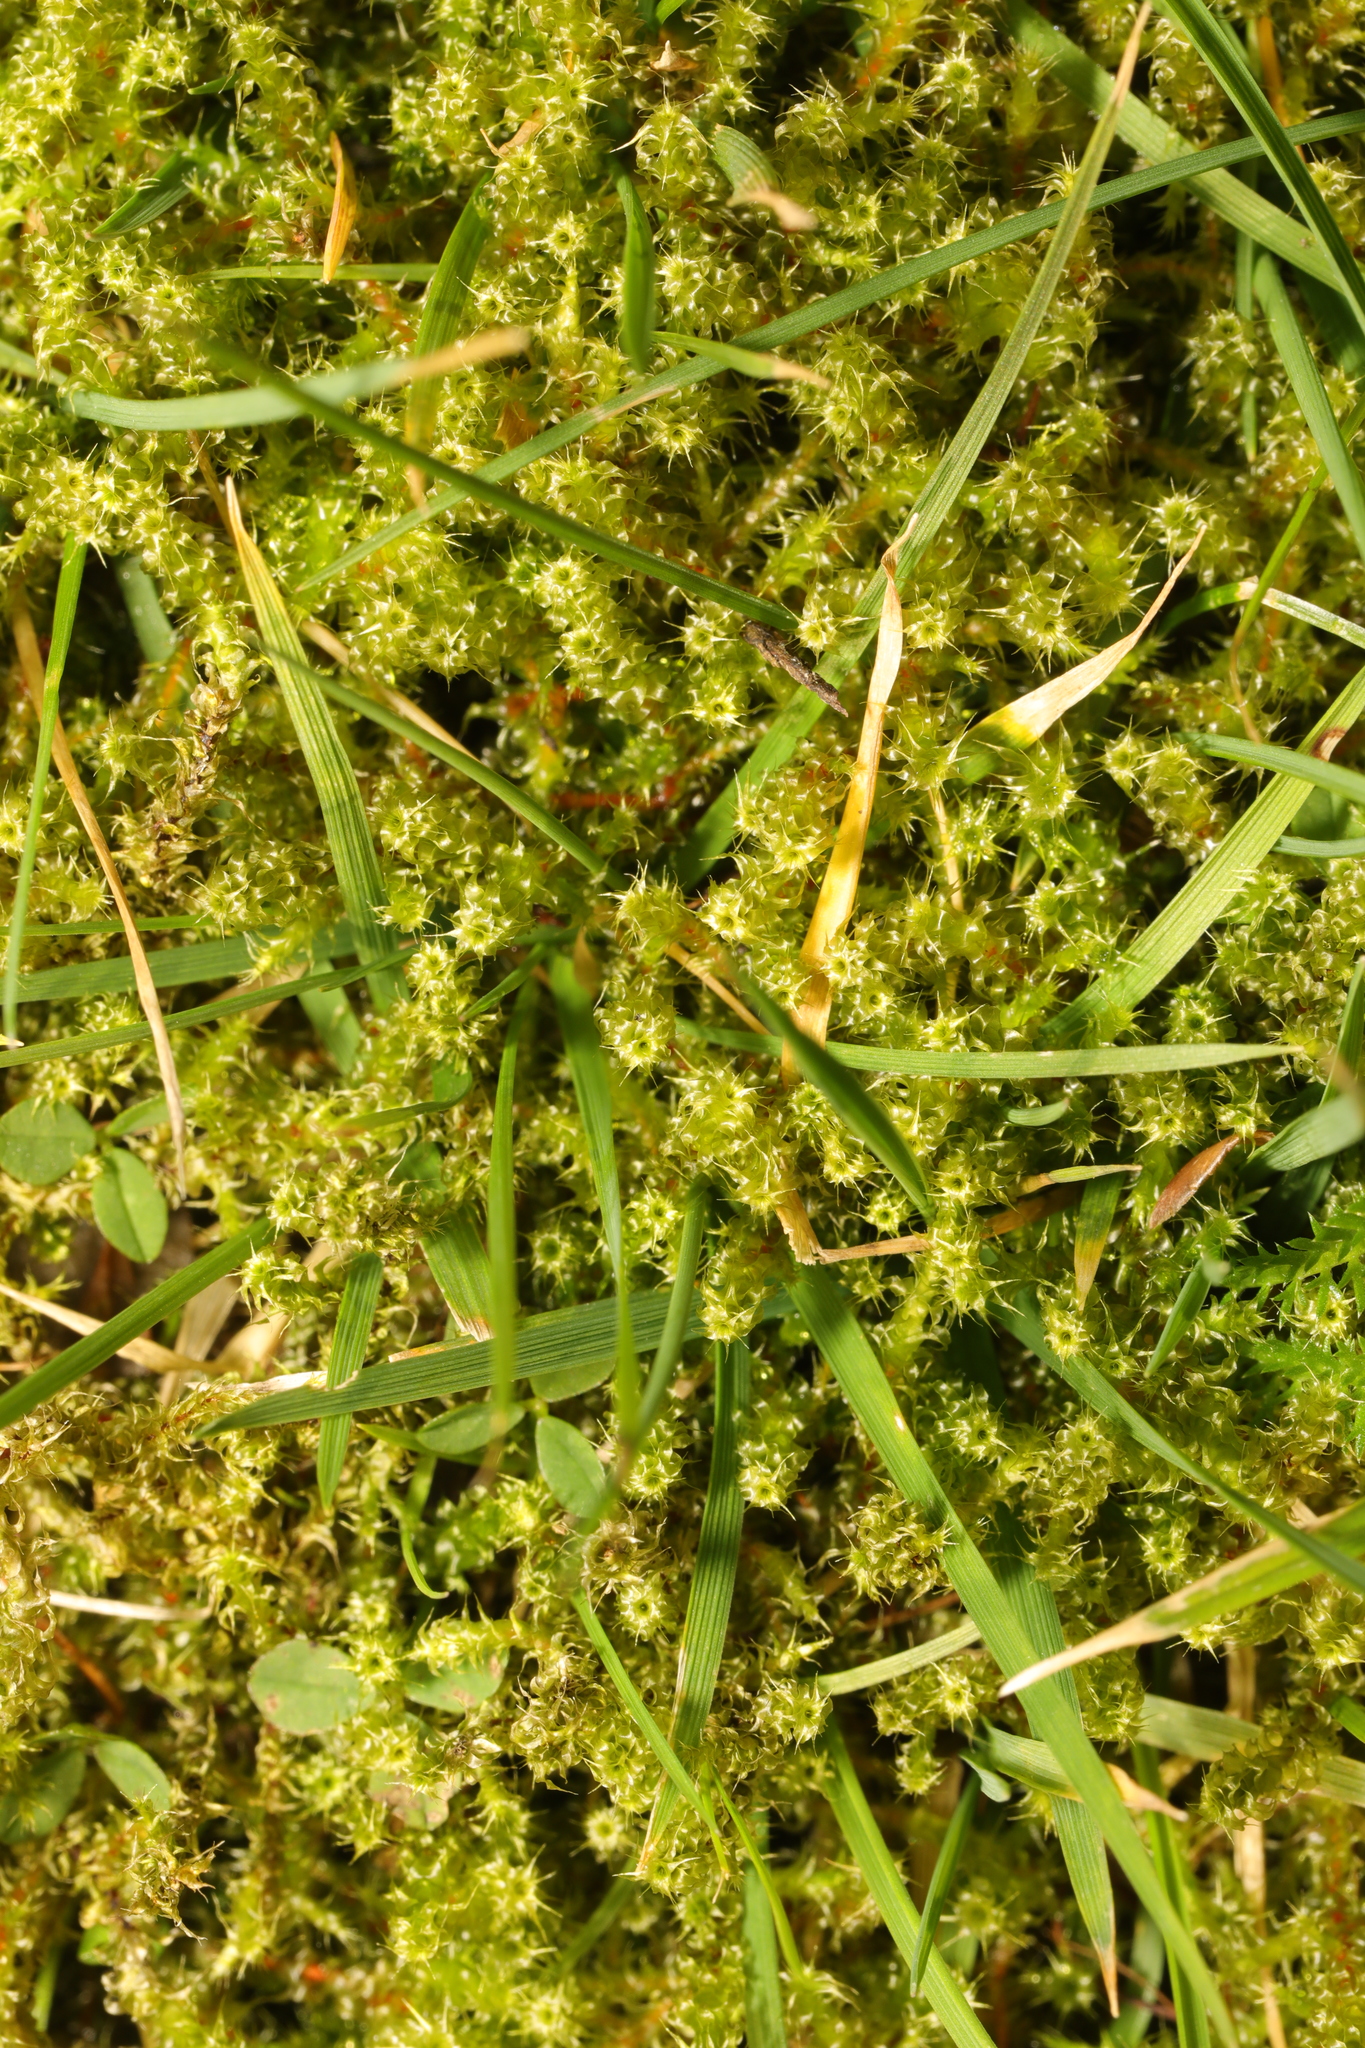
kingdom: Plantae
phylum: Bryophyta
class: Bryopsida
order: Hypnales
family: Hylocomiaceae
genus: Rhytidiadelphus
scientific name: Rhytidiadelphus squarrosus
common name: Springy turf-moss
